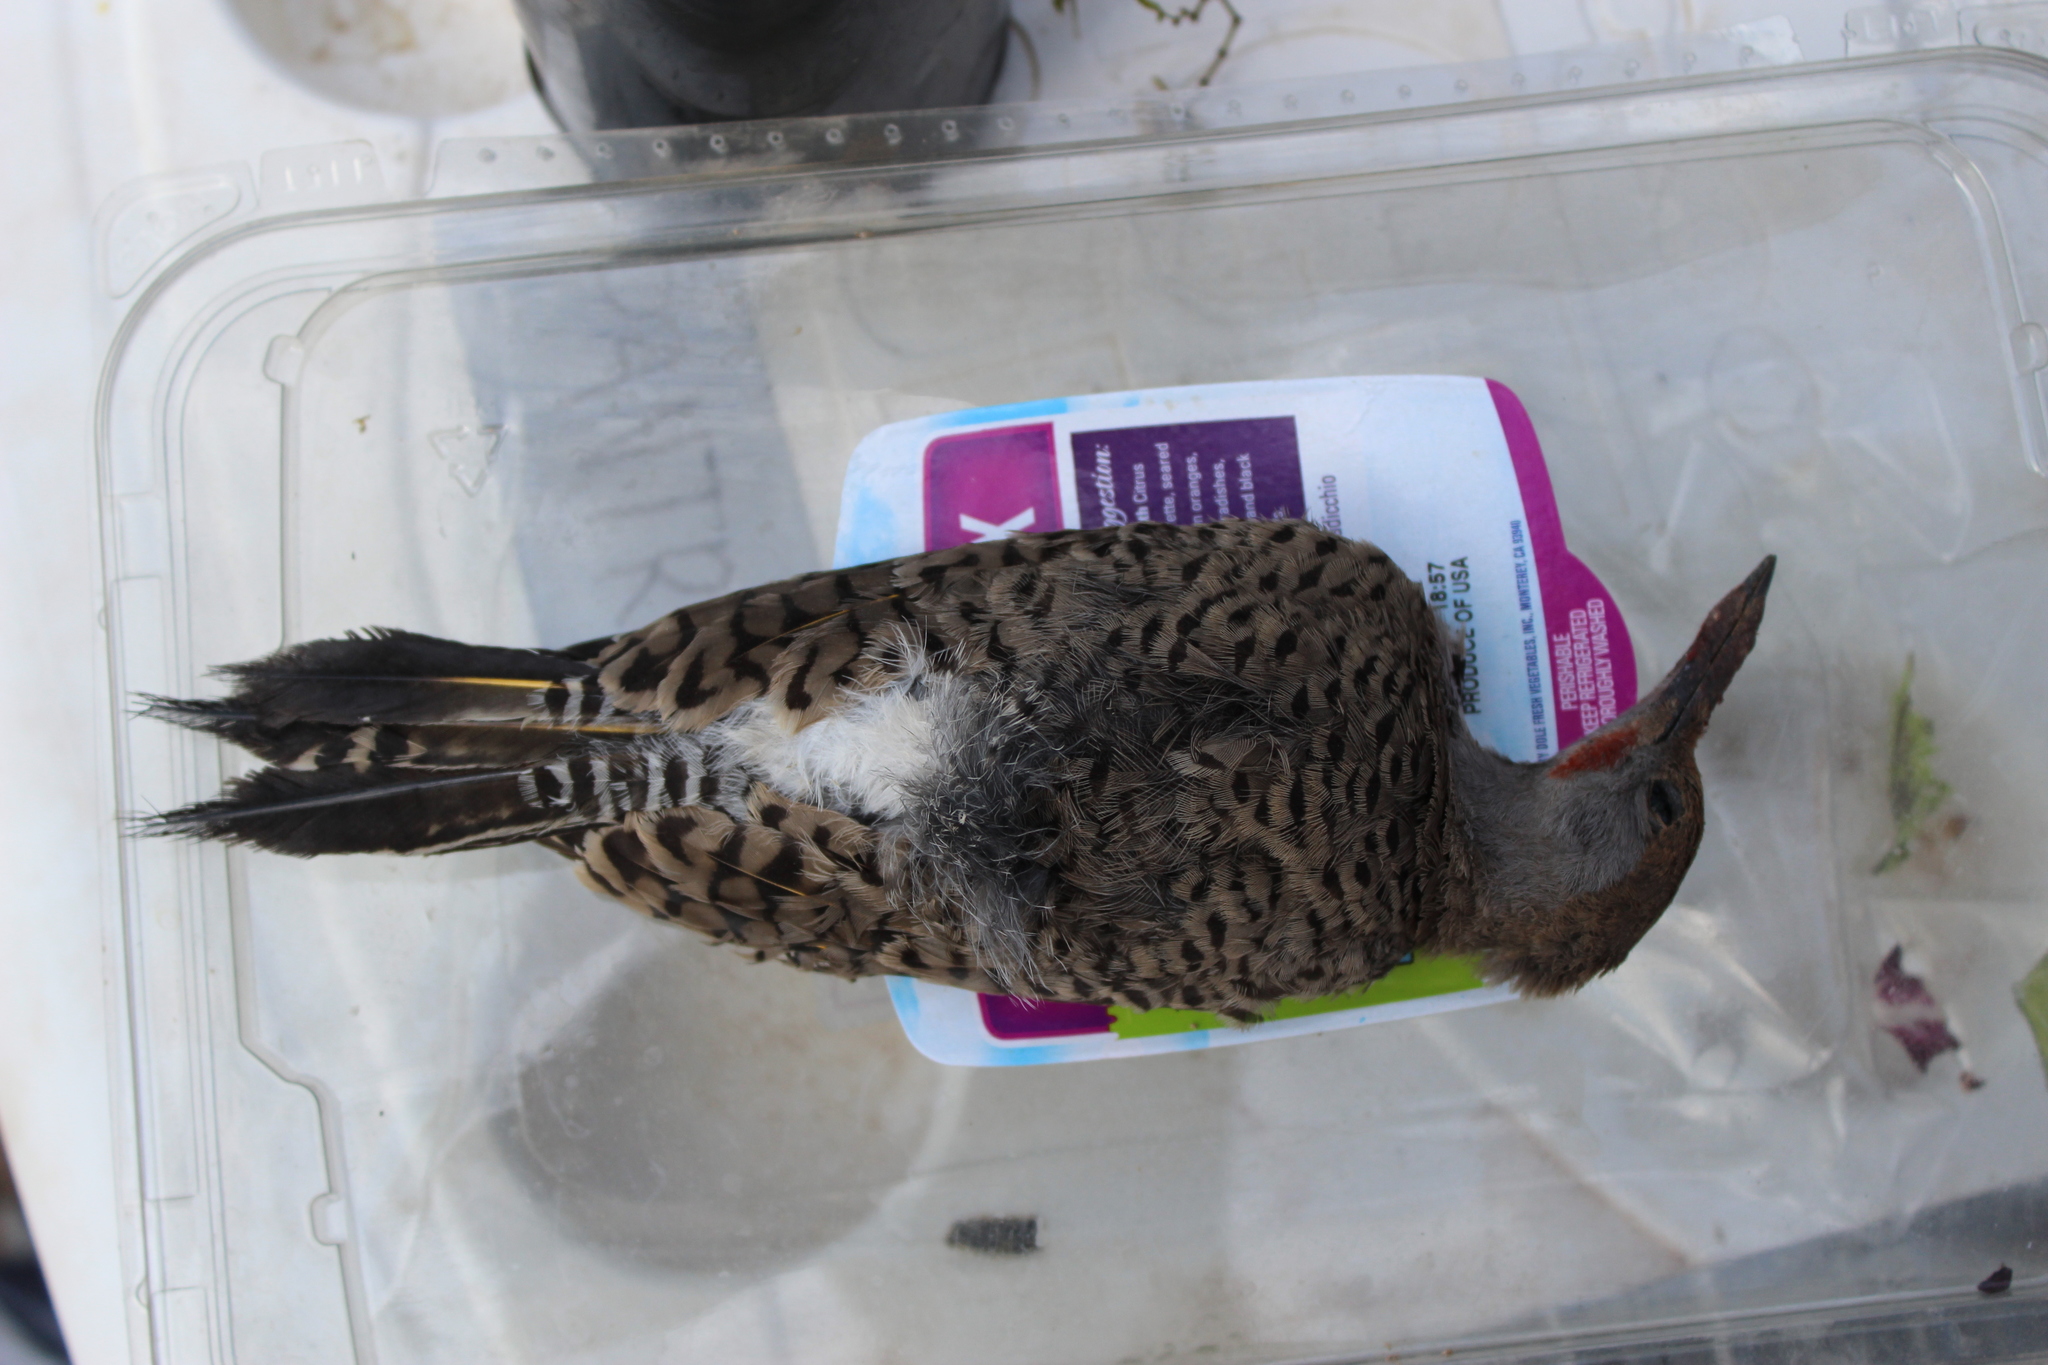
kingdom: Animalia
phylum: Chordata
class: Aves
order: Piciformes
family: Picidae
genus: Colaptes
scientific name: Colaptes chrysoides
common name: Gilded flicker
